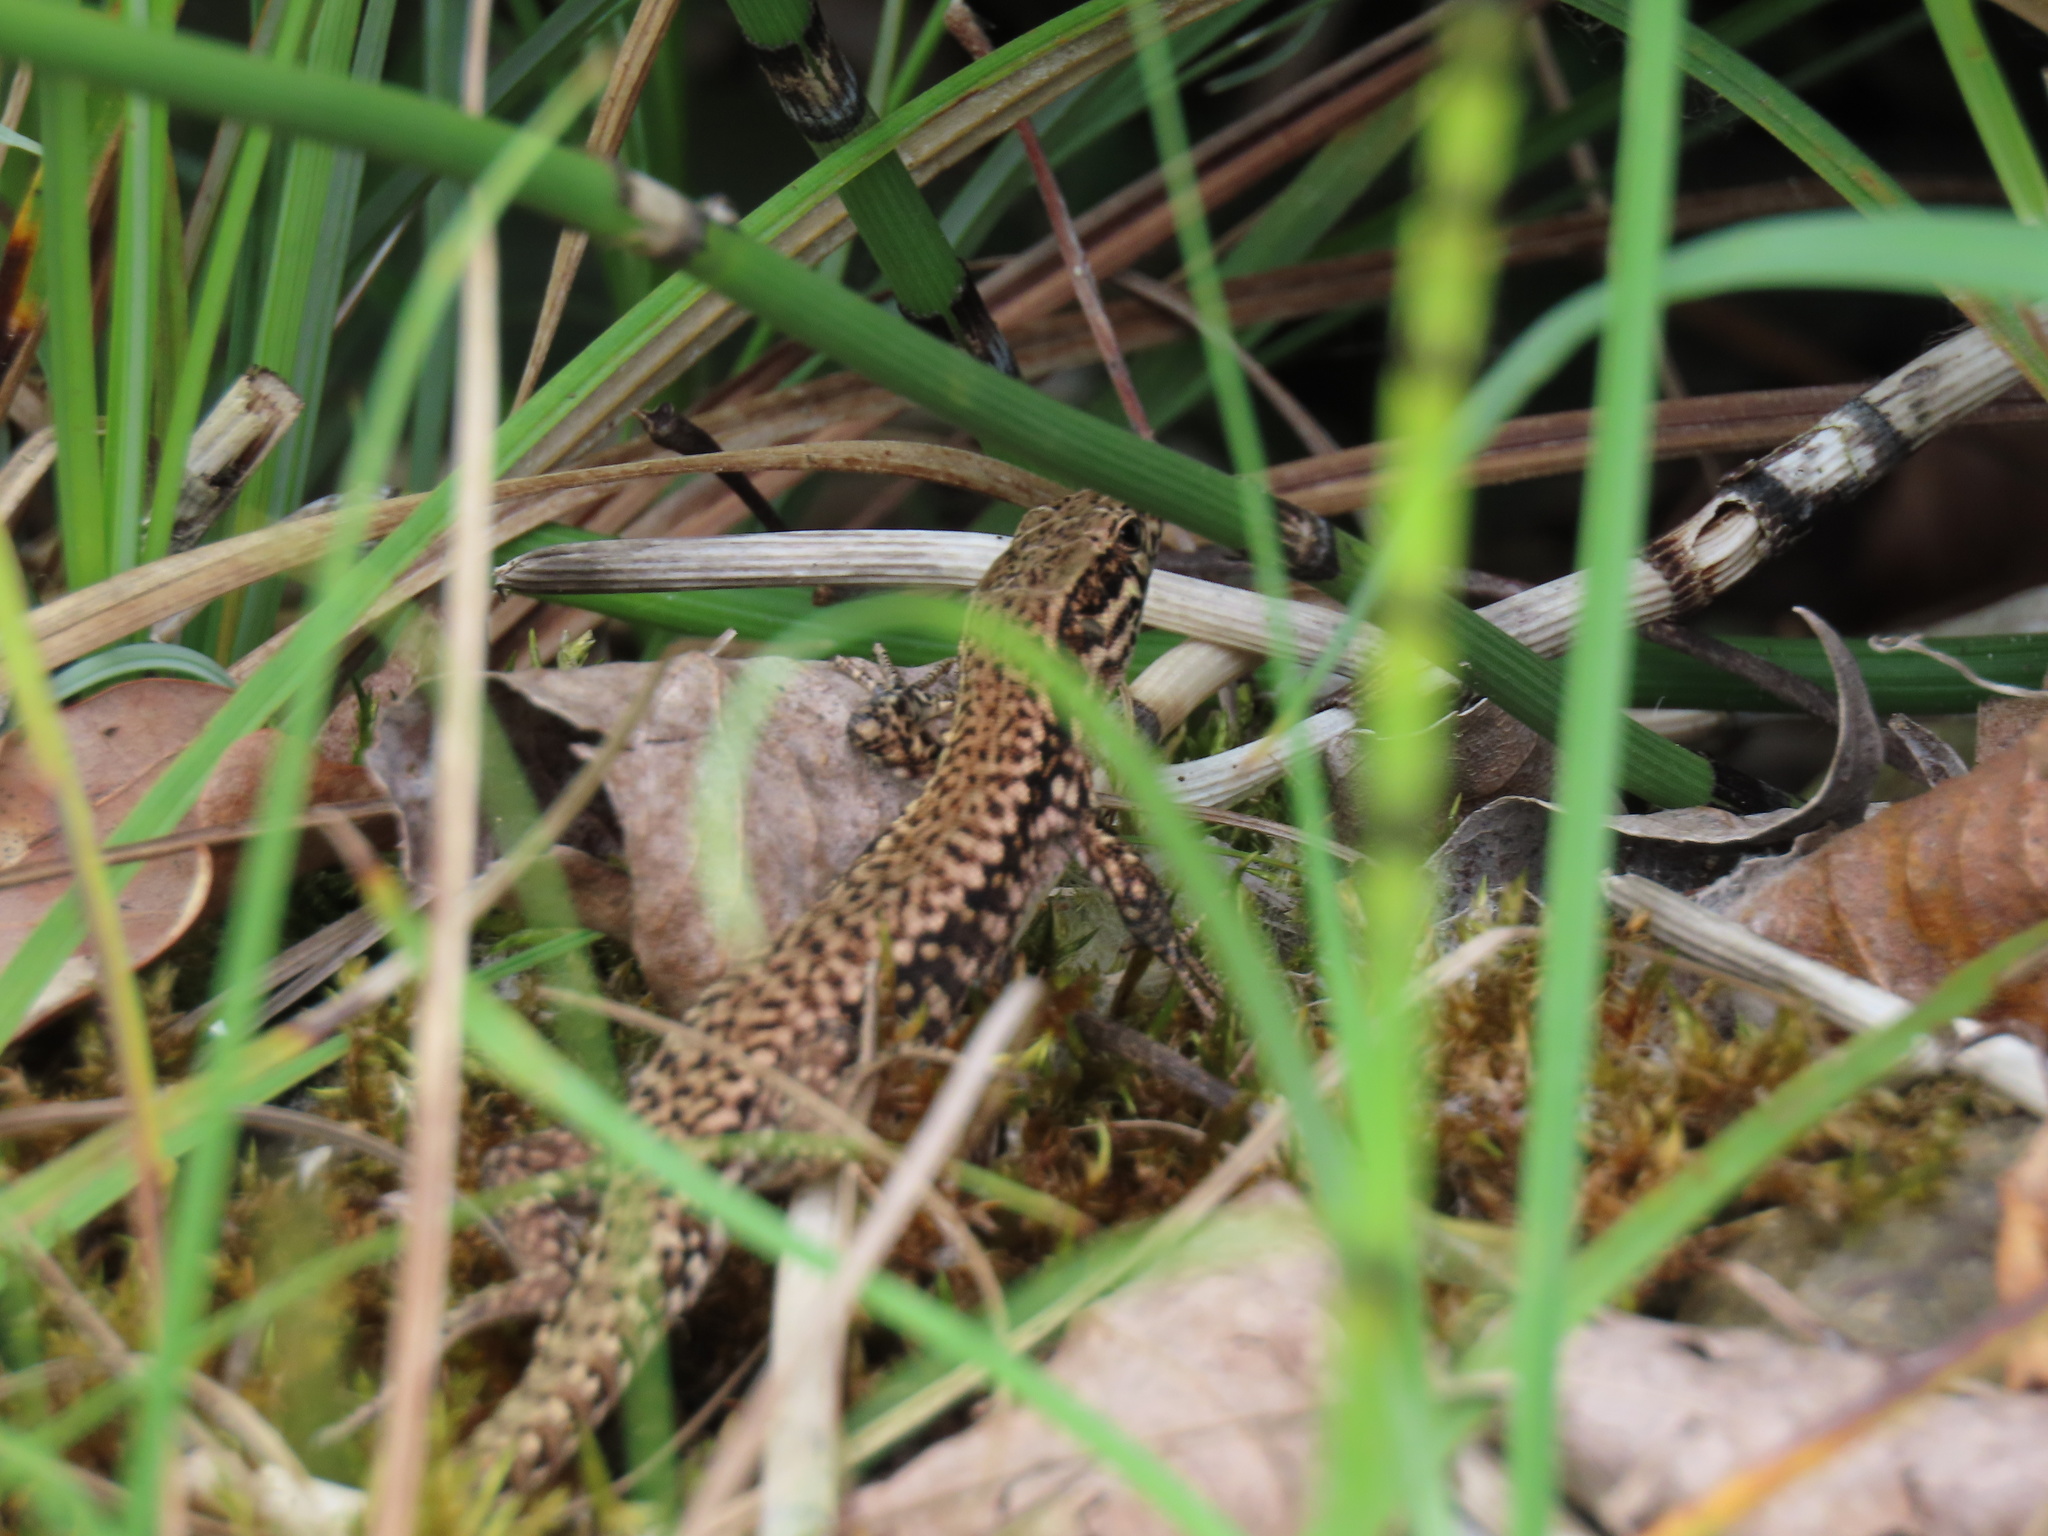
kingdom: Animalia
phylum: Chordata
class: Squamata
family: Lacertidae
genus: Podarcis
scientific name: Podarcis muralis
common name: Common wall lizard
